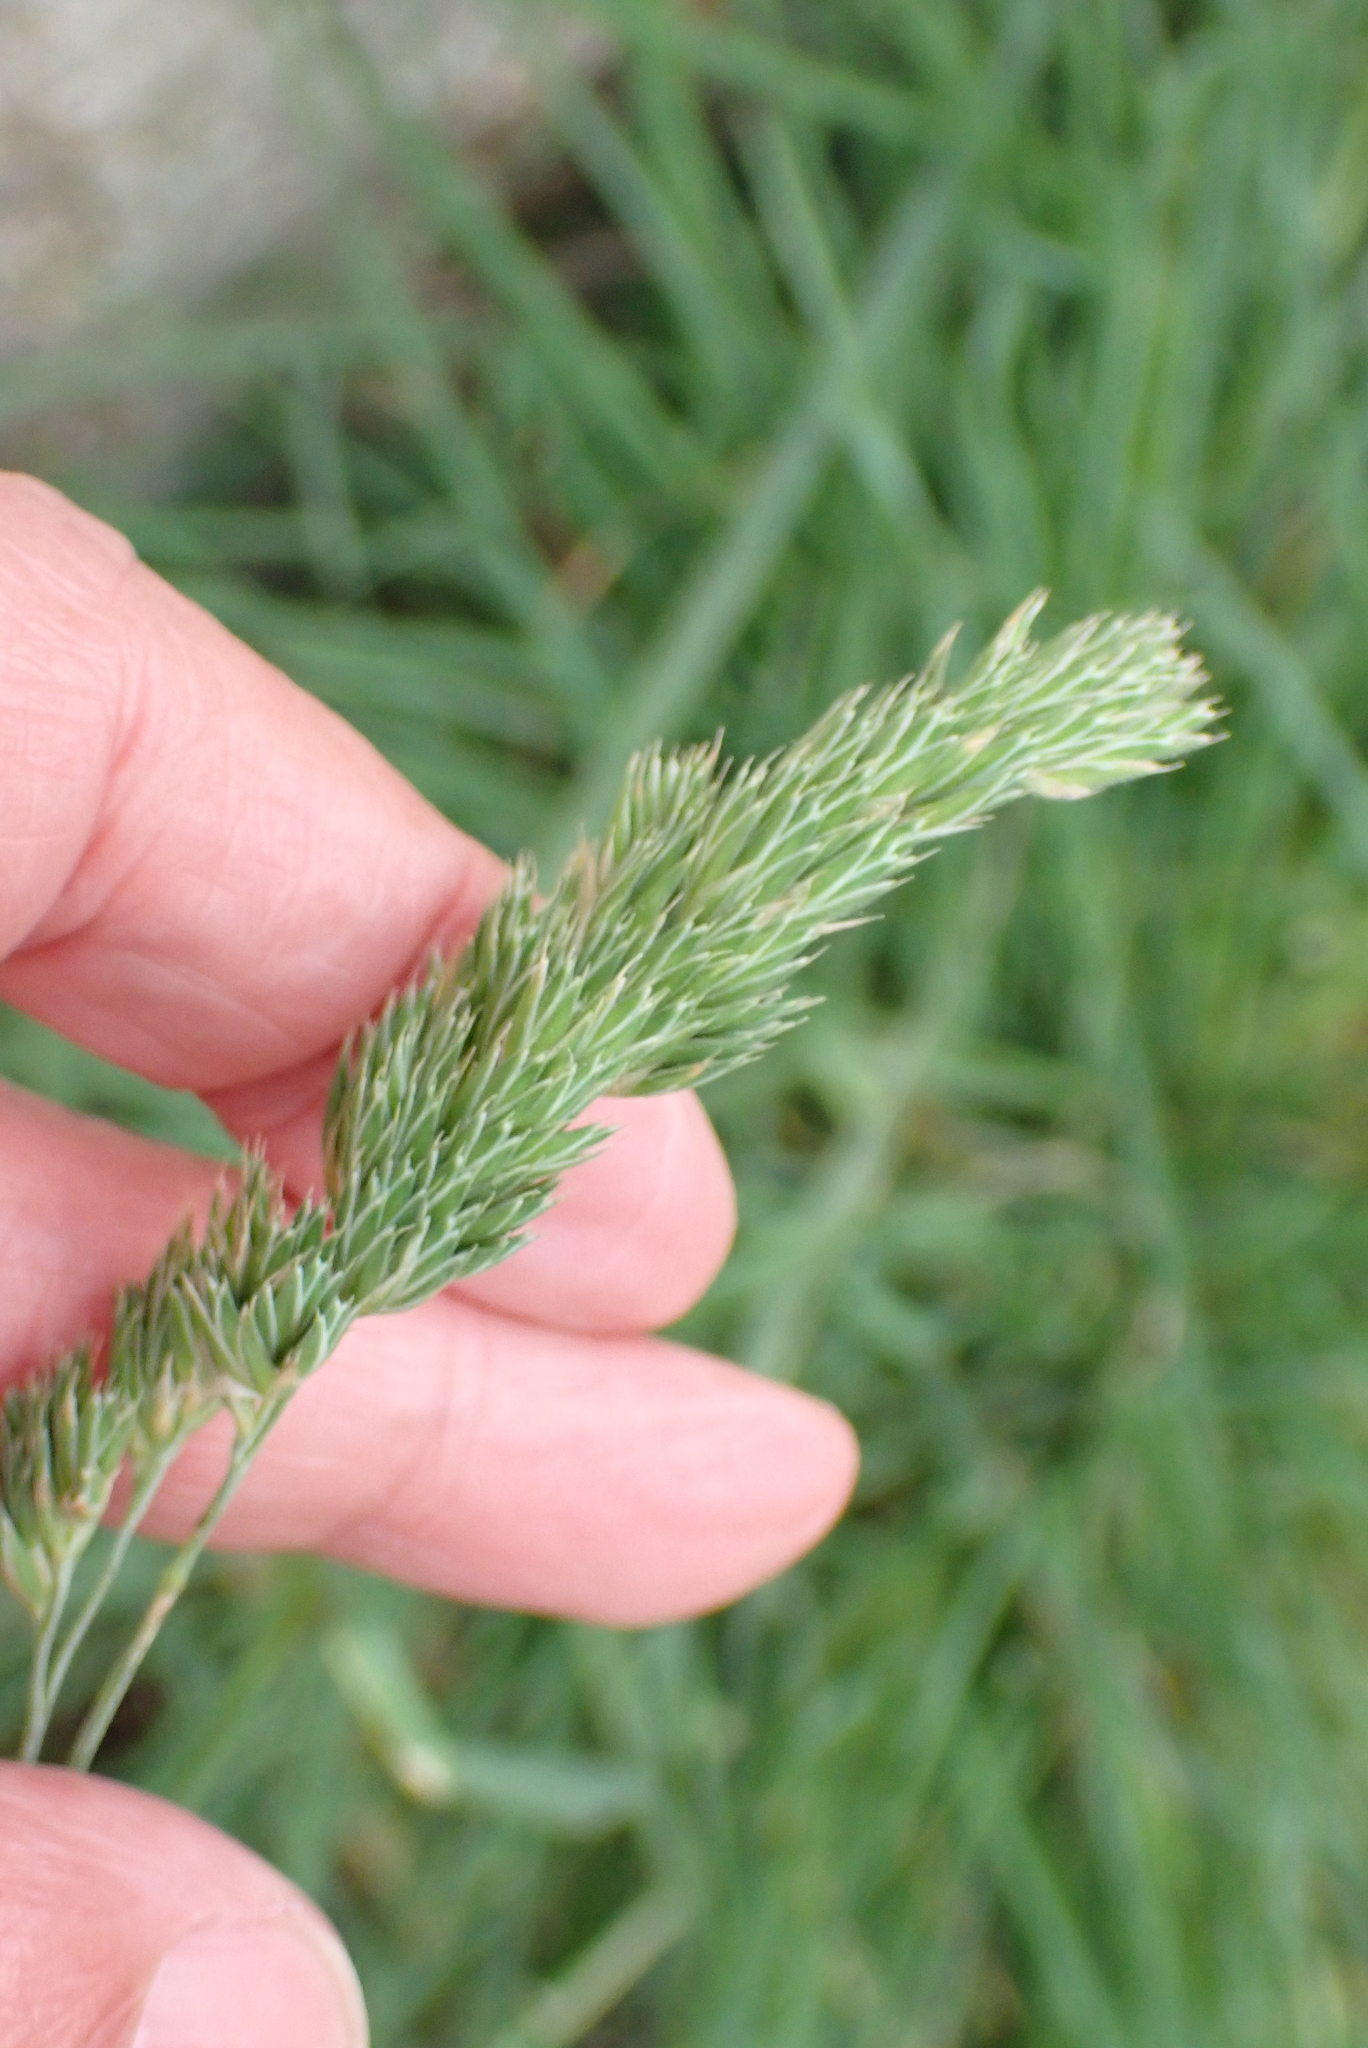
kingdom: Plantae
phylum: Tracheophyta
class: Liliopsida
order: Poales
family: Poaceae
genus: Dactylis
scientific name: Dactylis glomerata
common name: Orchardgrass
